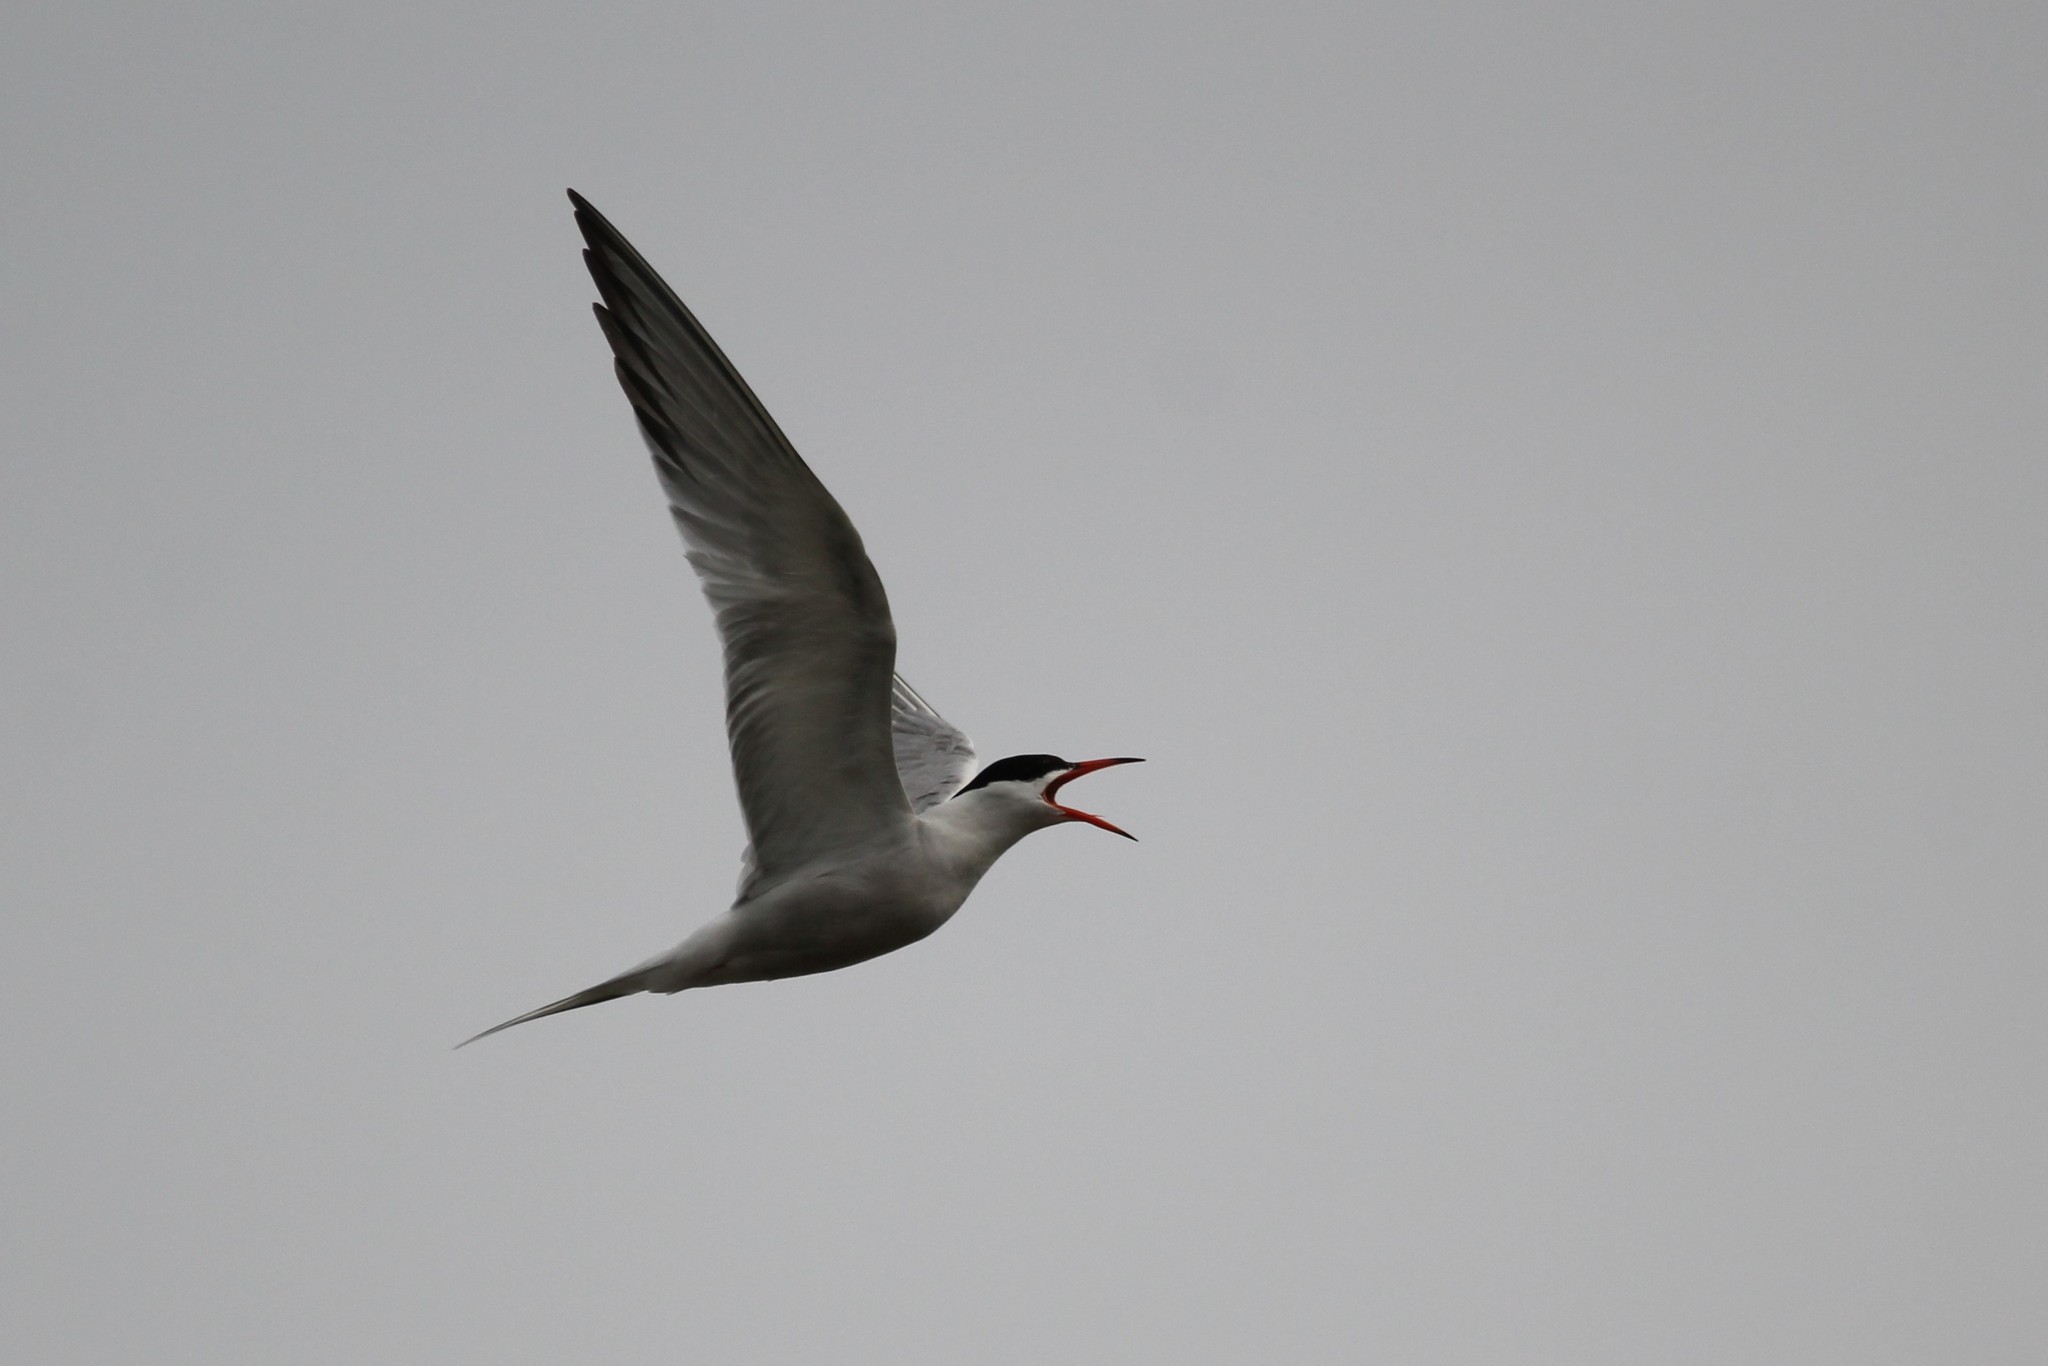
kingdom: Animalia
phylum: Chordata
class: Aves
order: Charadriiformes
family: Laridae
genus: Sterna
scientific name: Sterna hirundo
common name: Common tern
